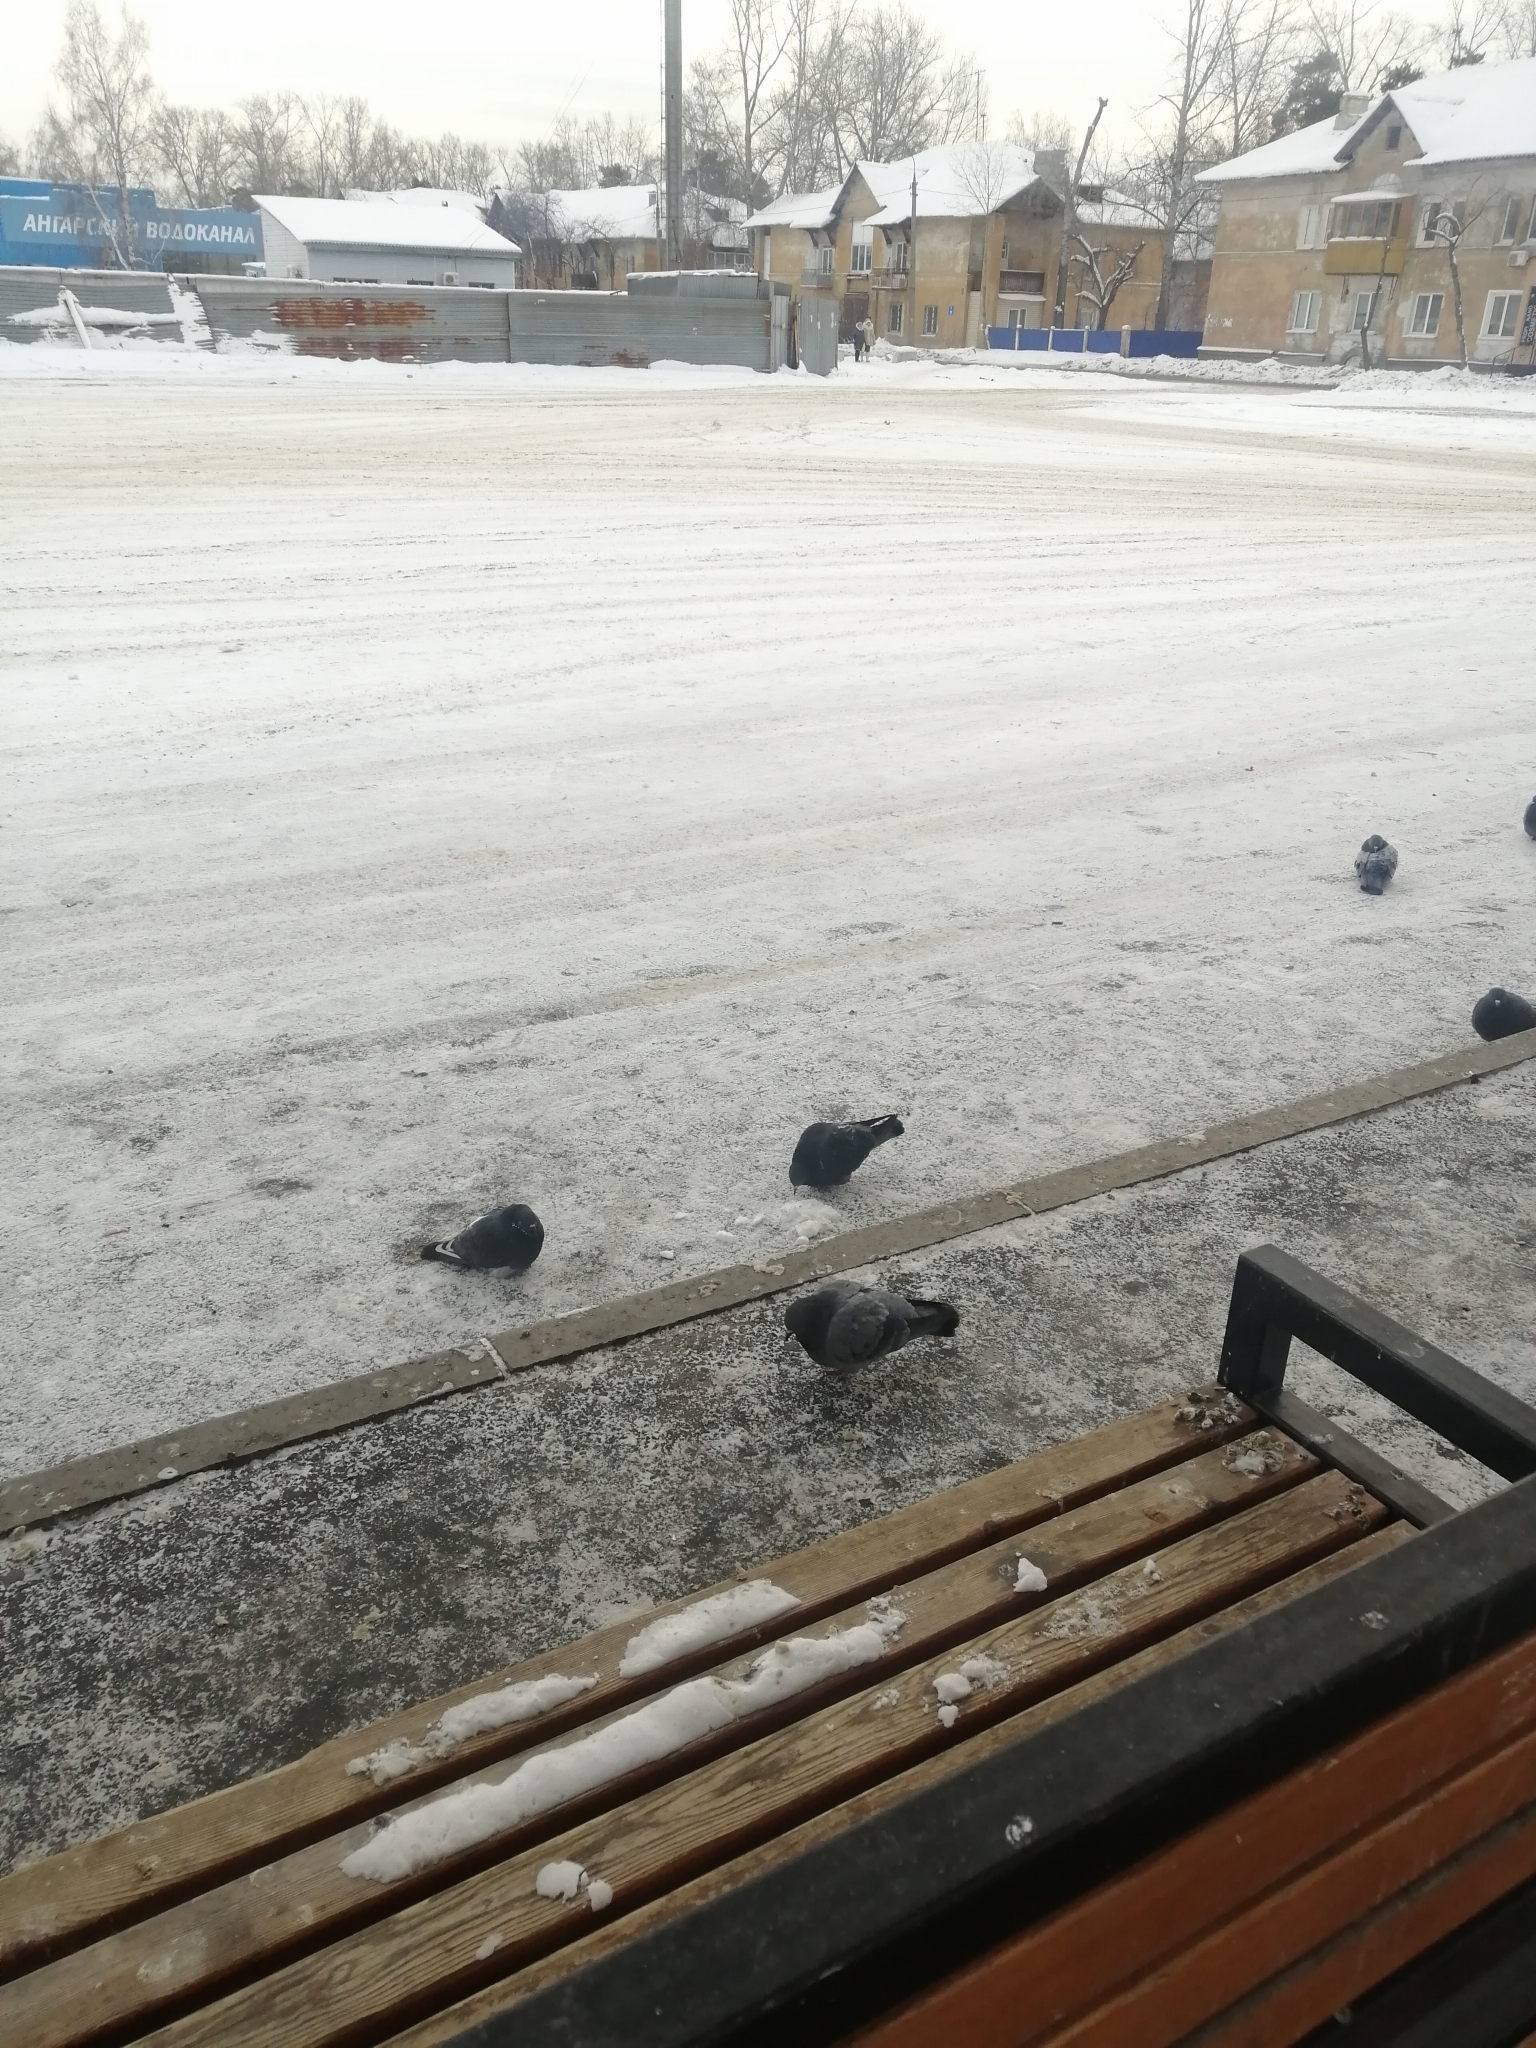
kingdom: Animalia
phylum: Chordata
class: Aves
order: Columbiformes
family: Columbidae
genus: Columba
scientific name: Columba livia
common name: Rock pigeon
